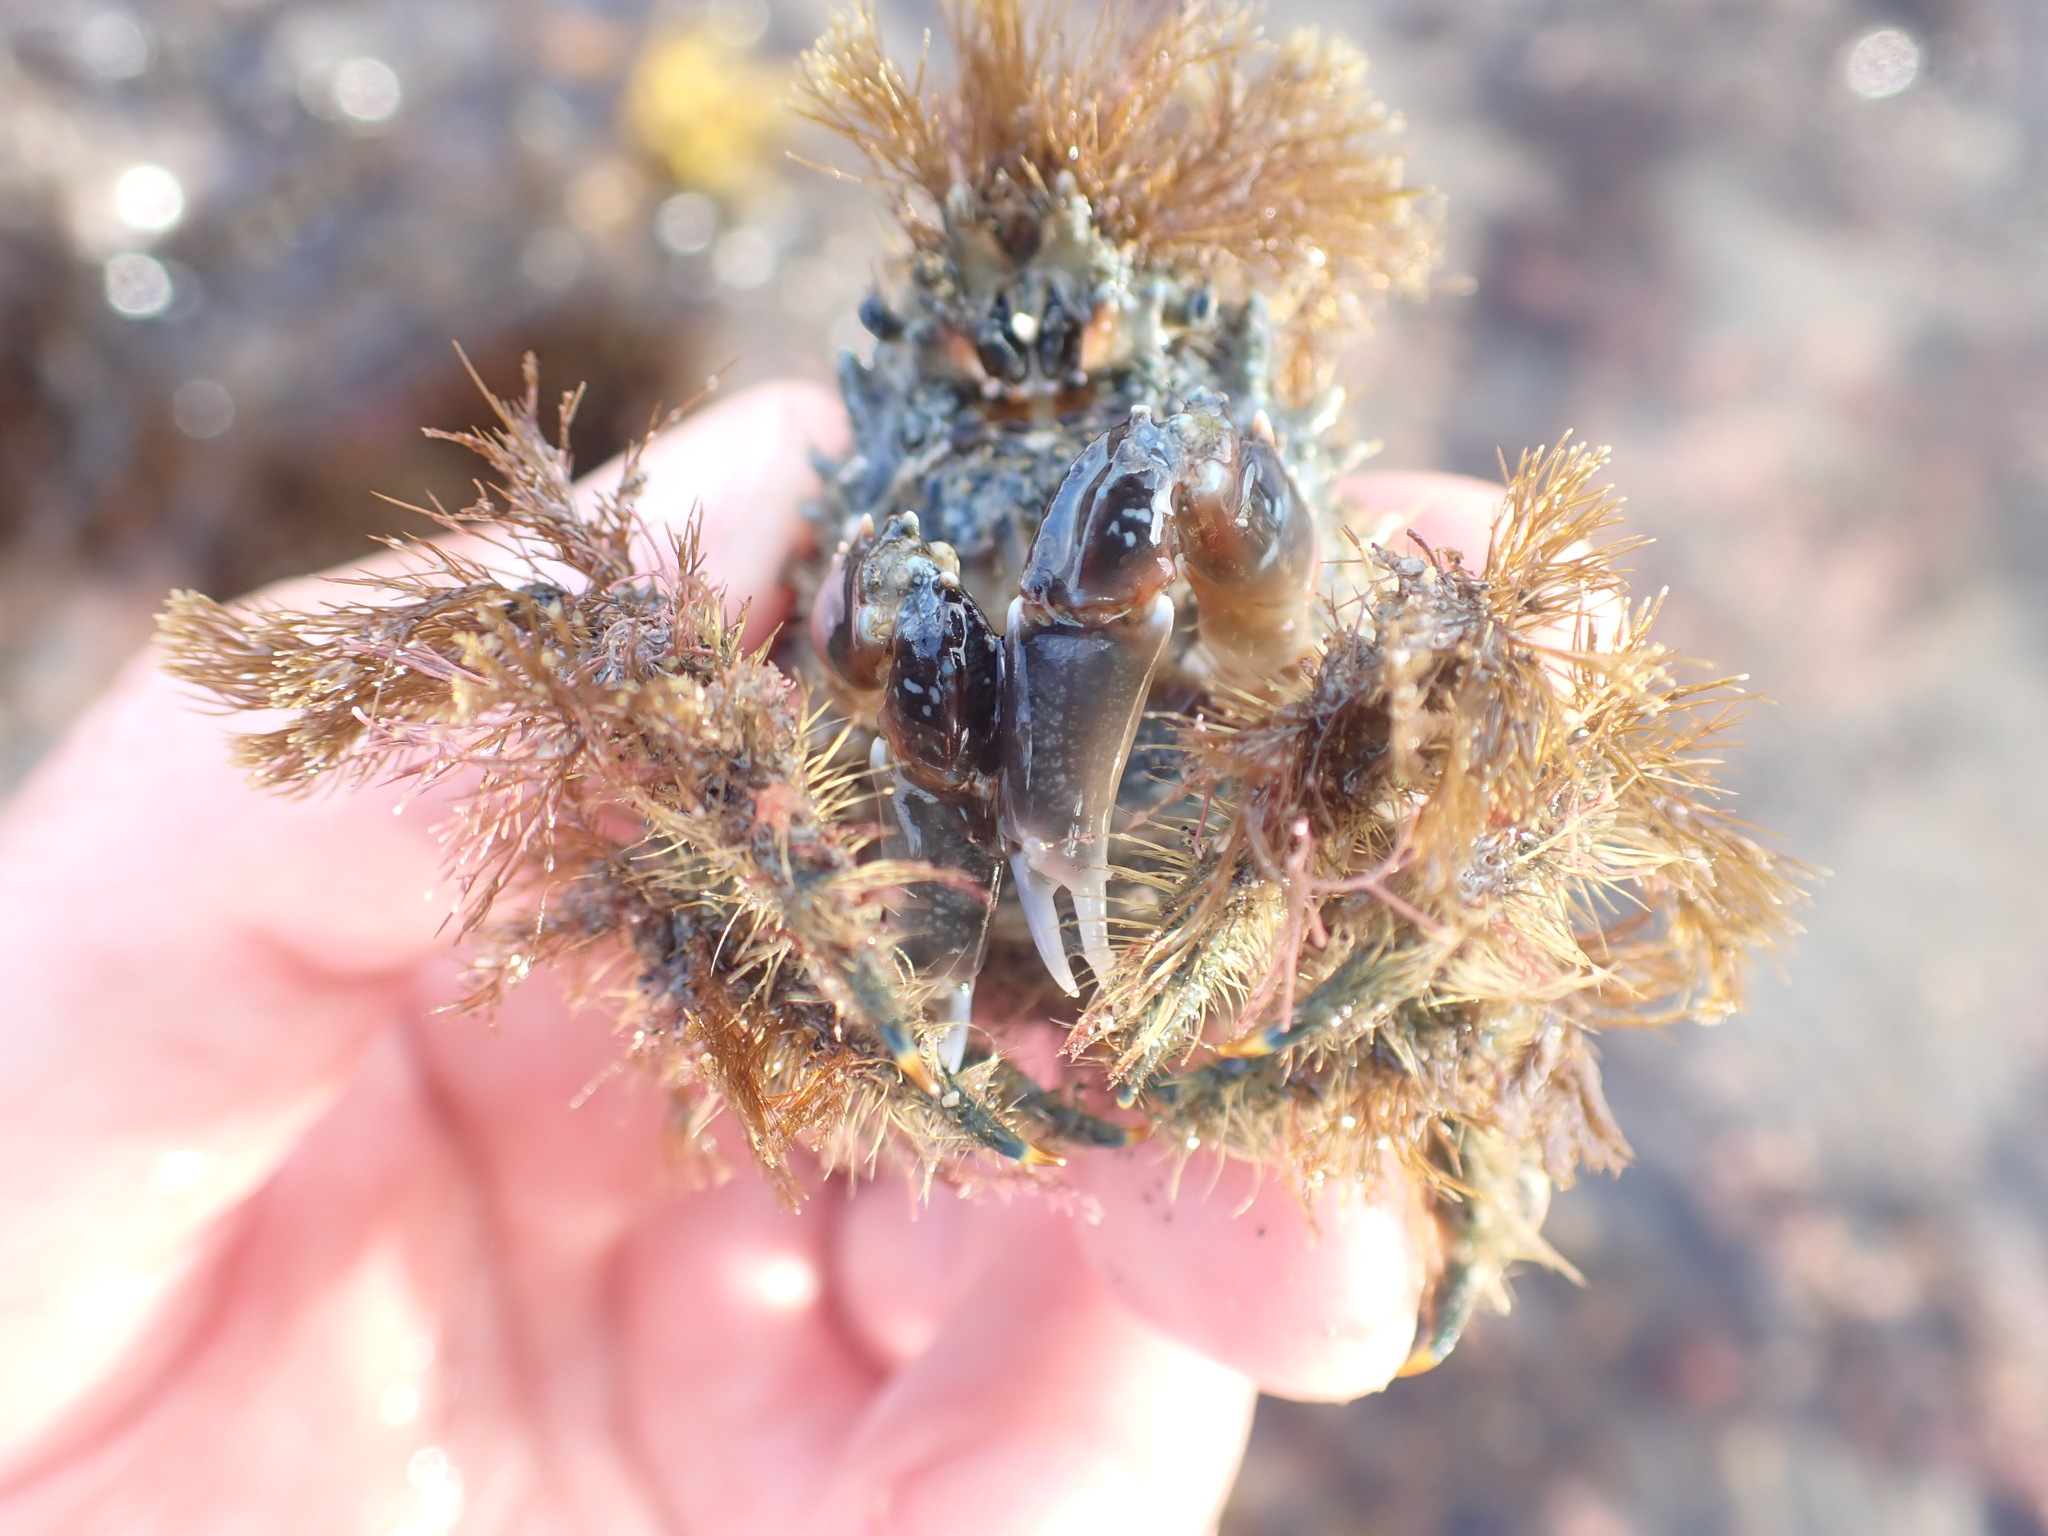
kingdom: Animalia
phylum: Arthropoda
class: Malacostraca
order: Decapoda
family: Majidae
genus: Notomithrax
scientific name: Notomithrax ursus
